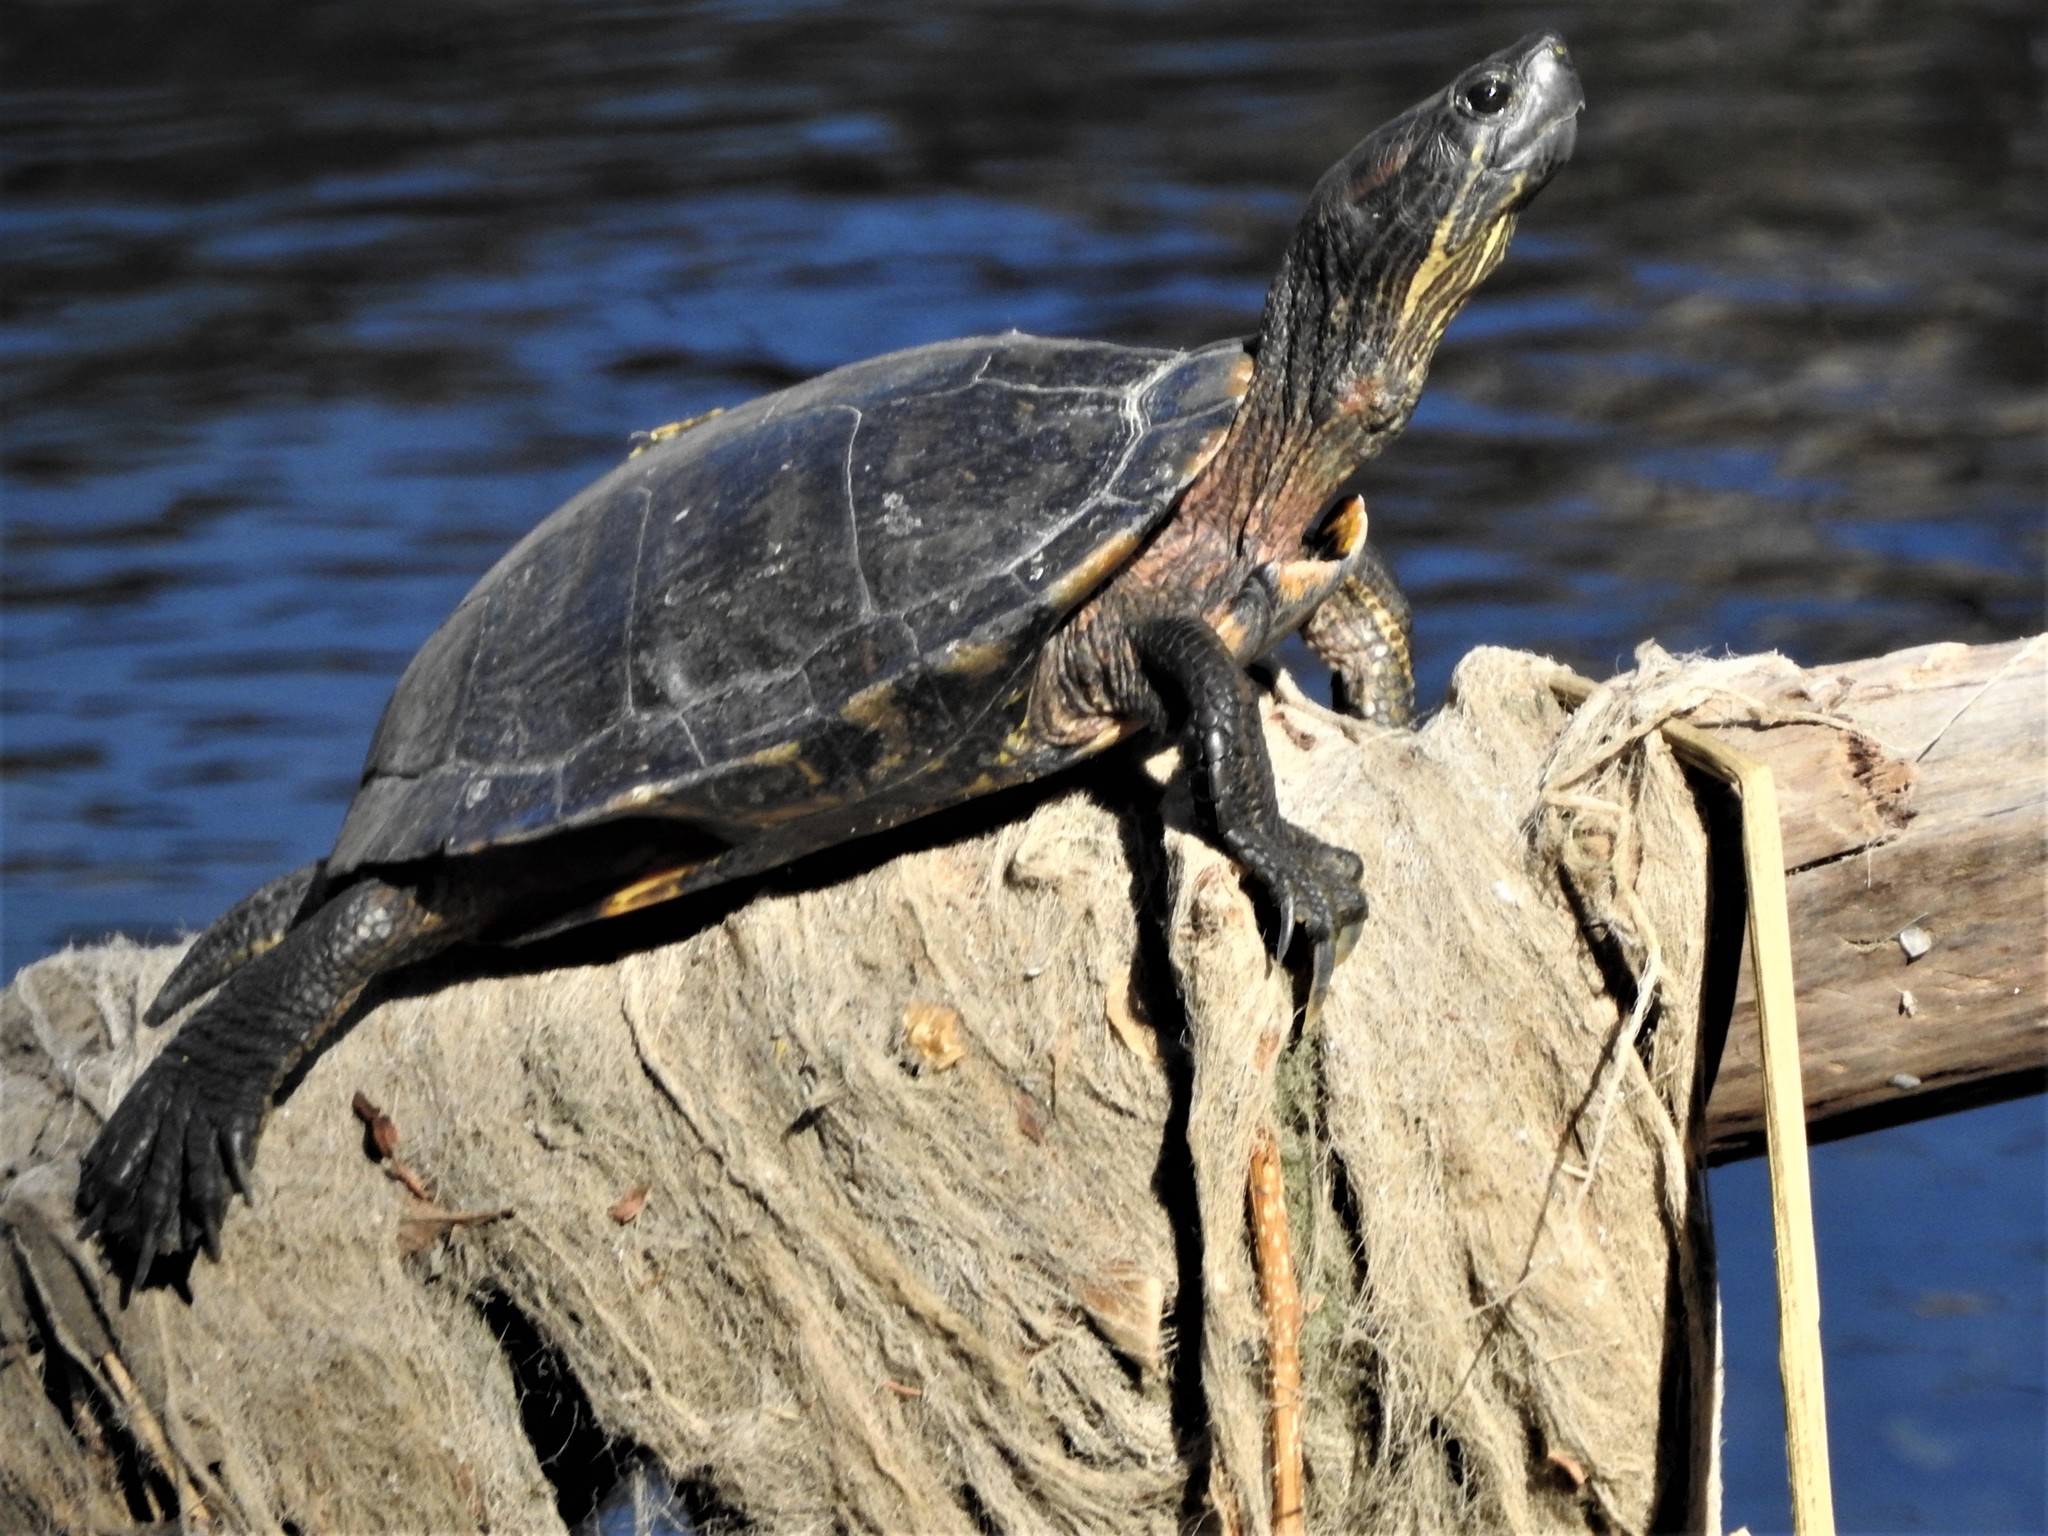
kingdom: Animalia
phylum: Chordata
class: Testudines
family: Emydidae
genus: Trachemys
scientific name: Trachemys scripta
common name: Slider
